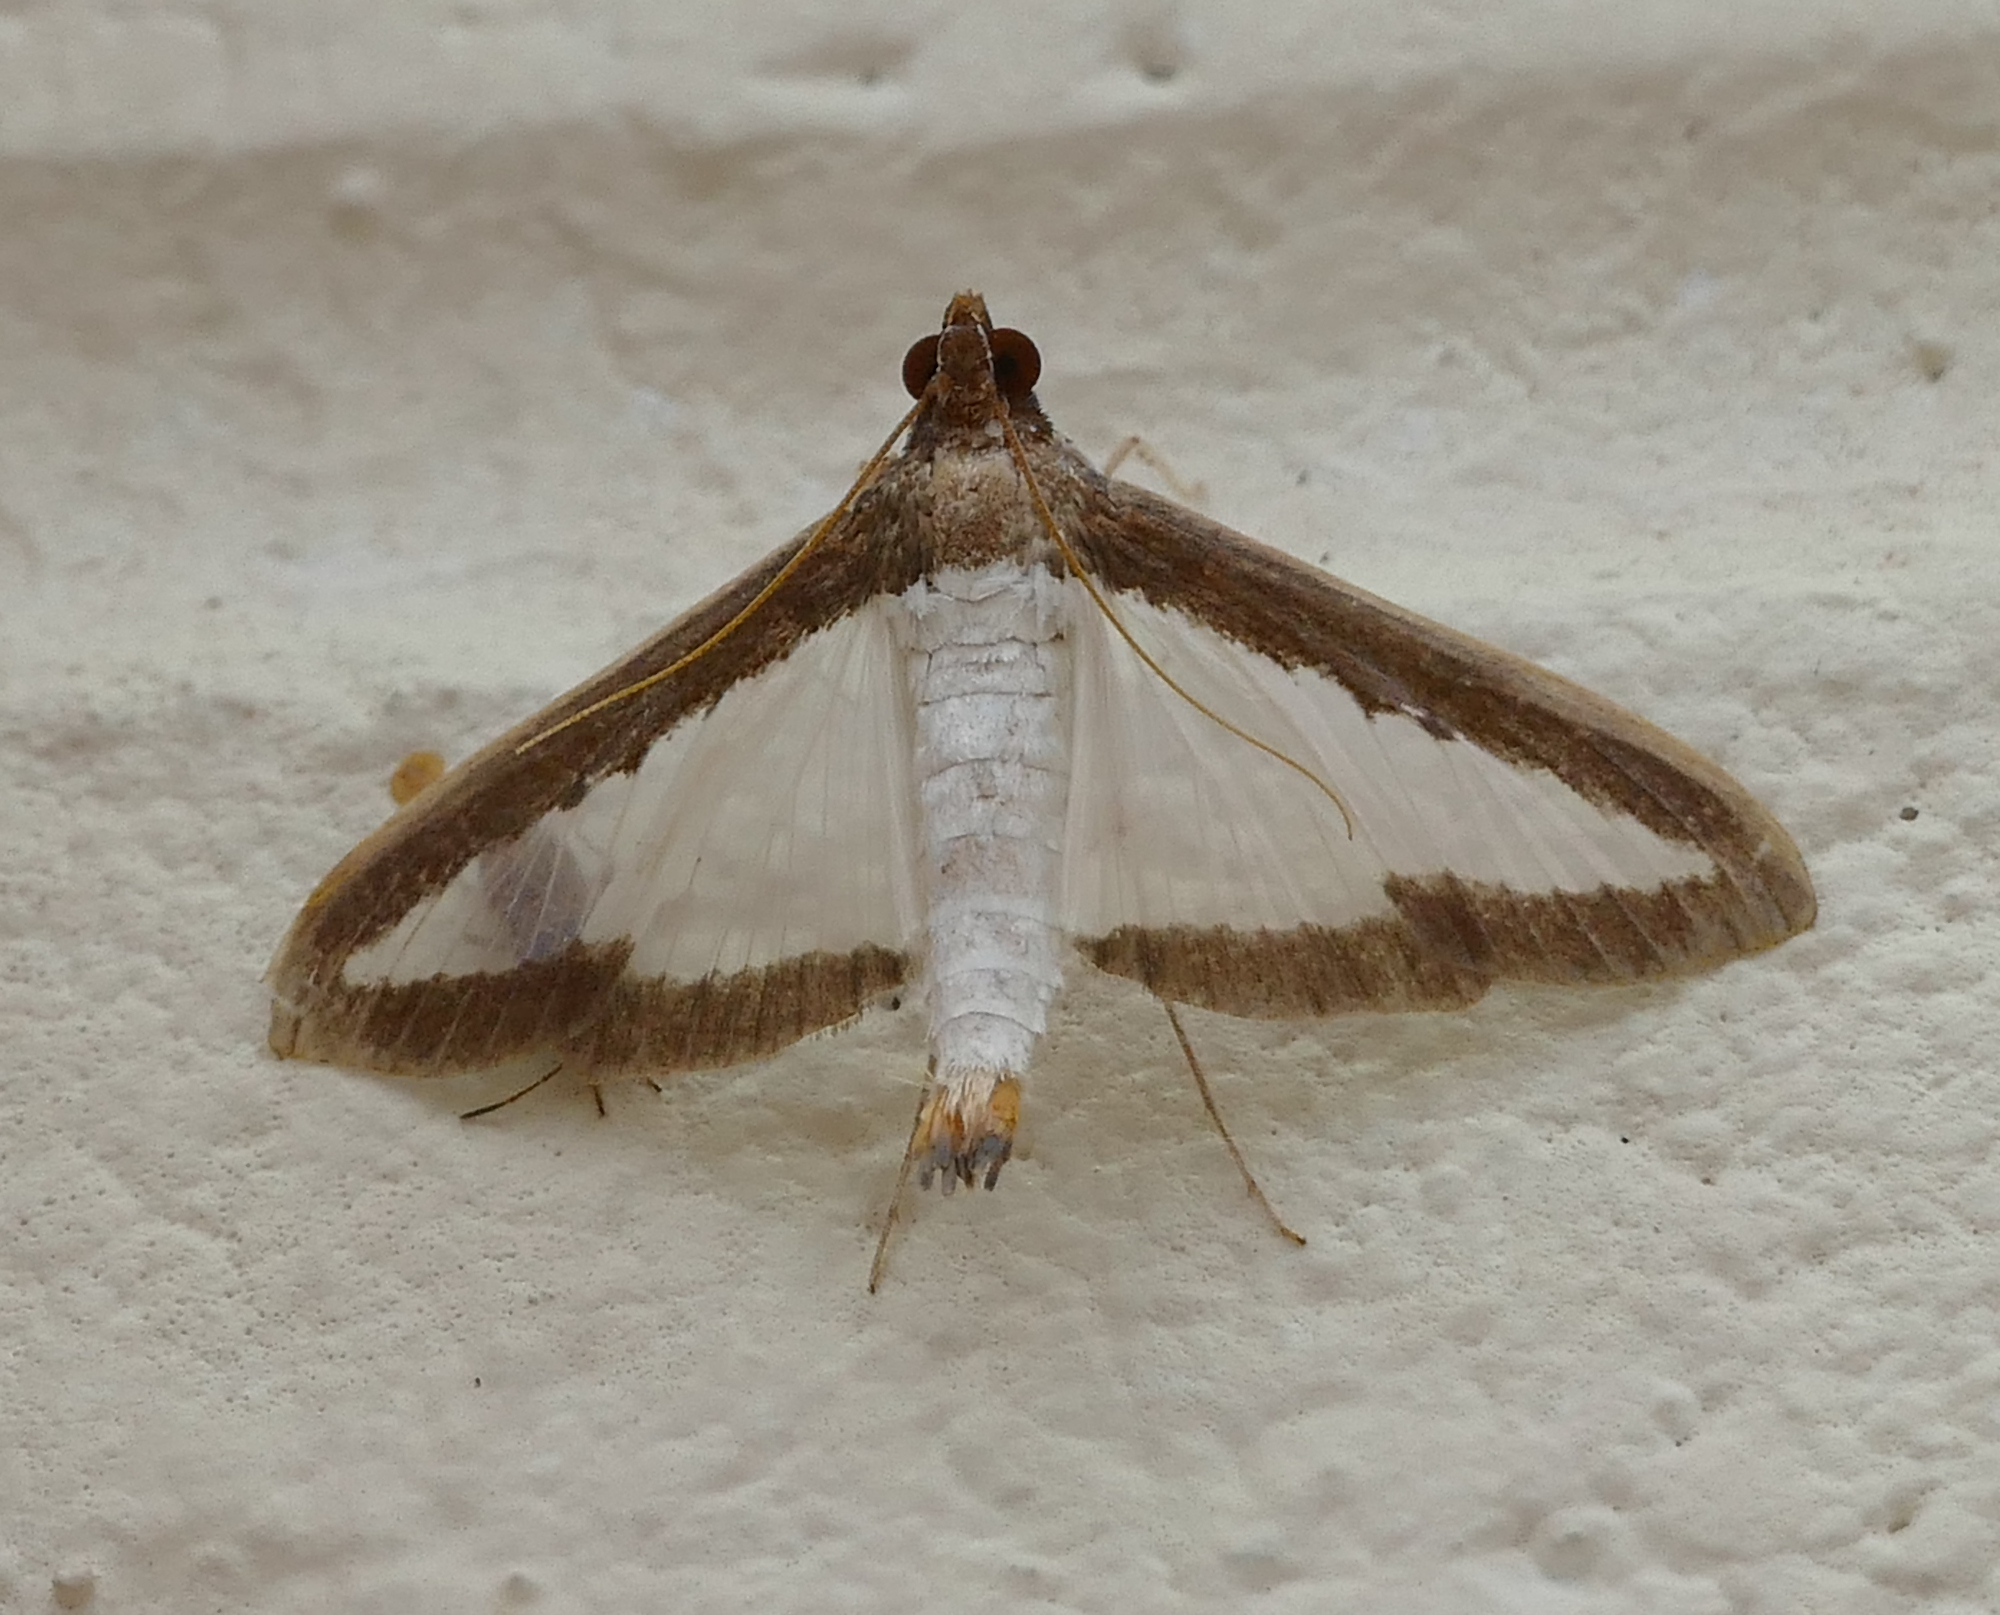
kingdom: Animalia
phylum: Arthropoda
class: Insecta
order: Lepidoptera
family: Crambidae
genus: Diaphania
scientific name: Diaphania hyalinata
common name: Melonworm
